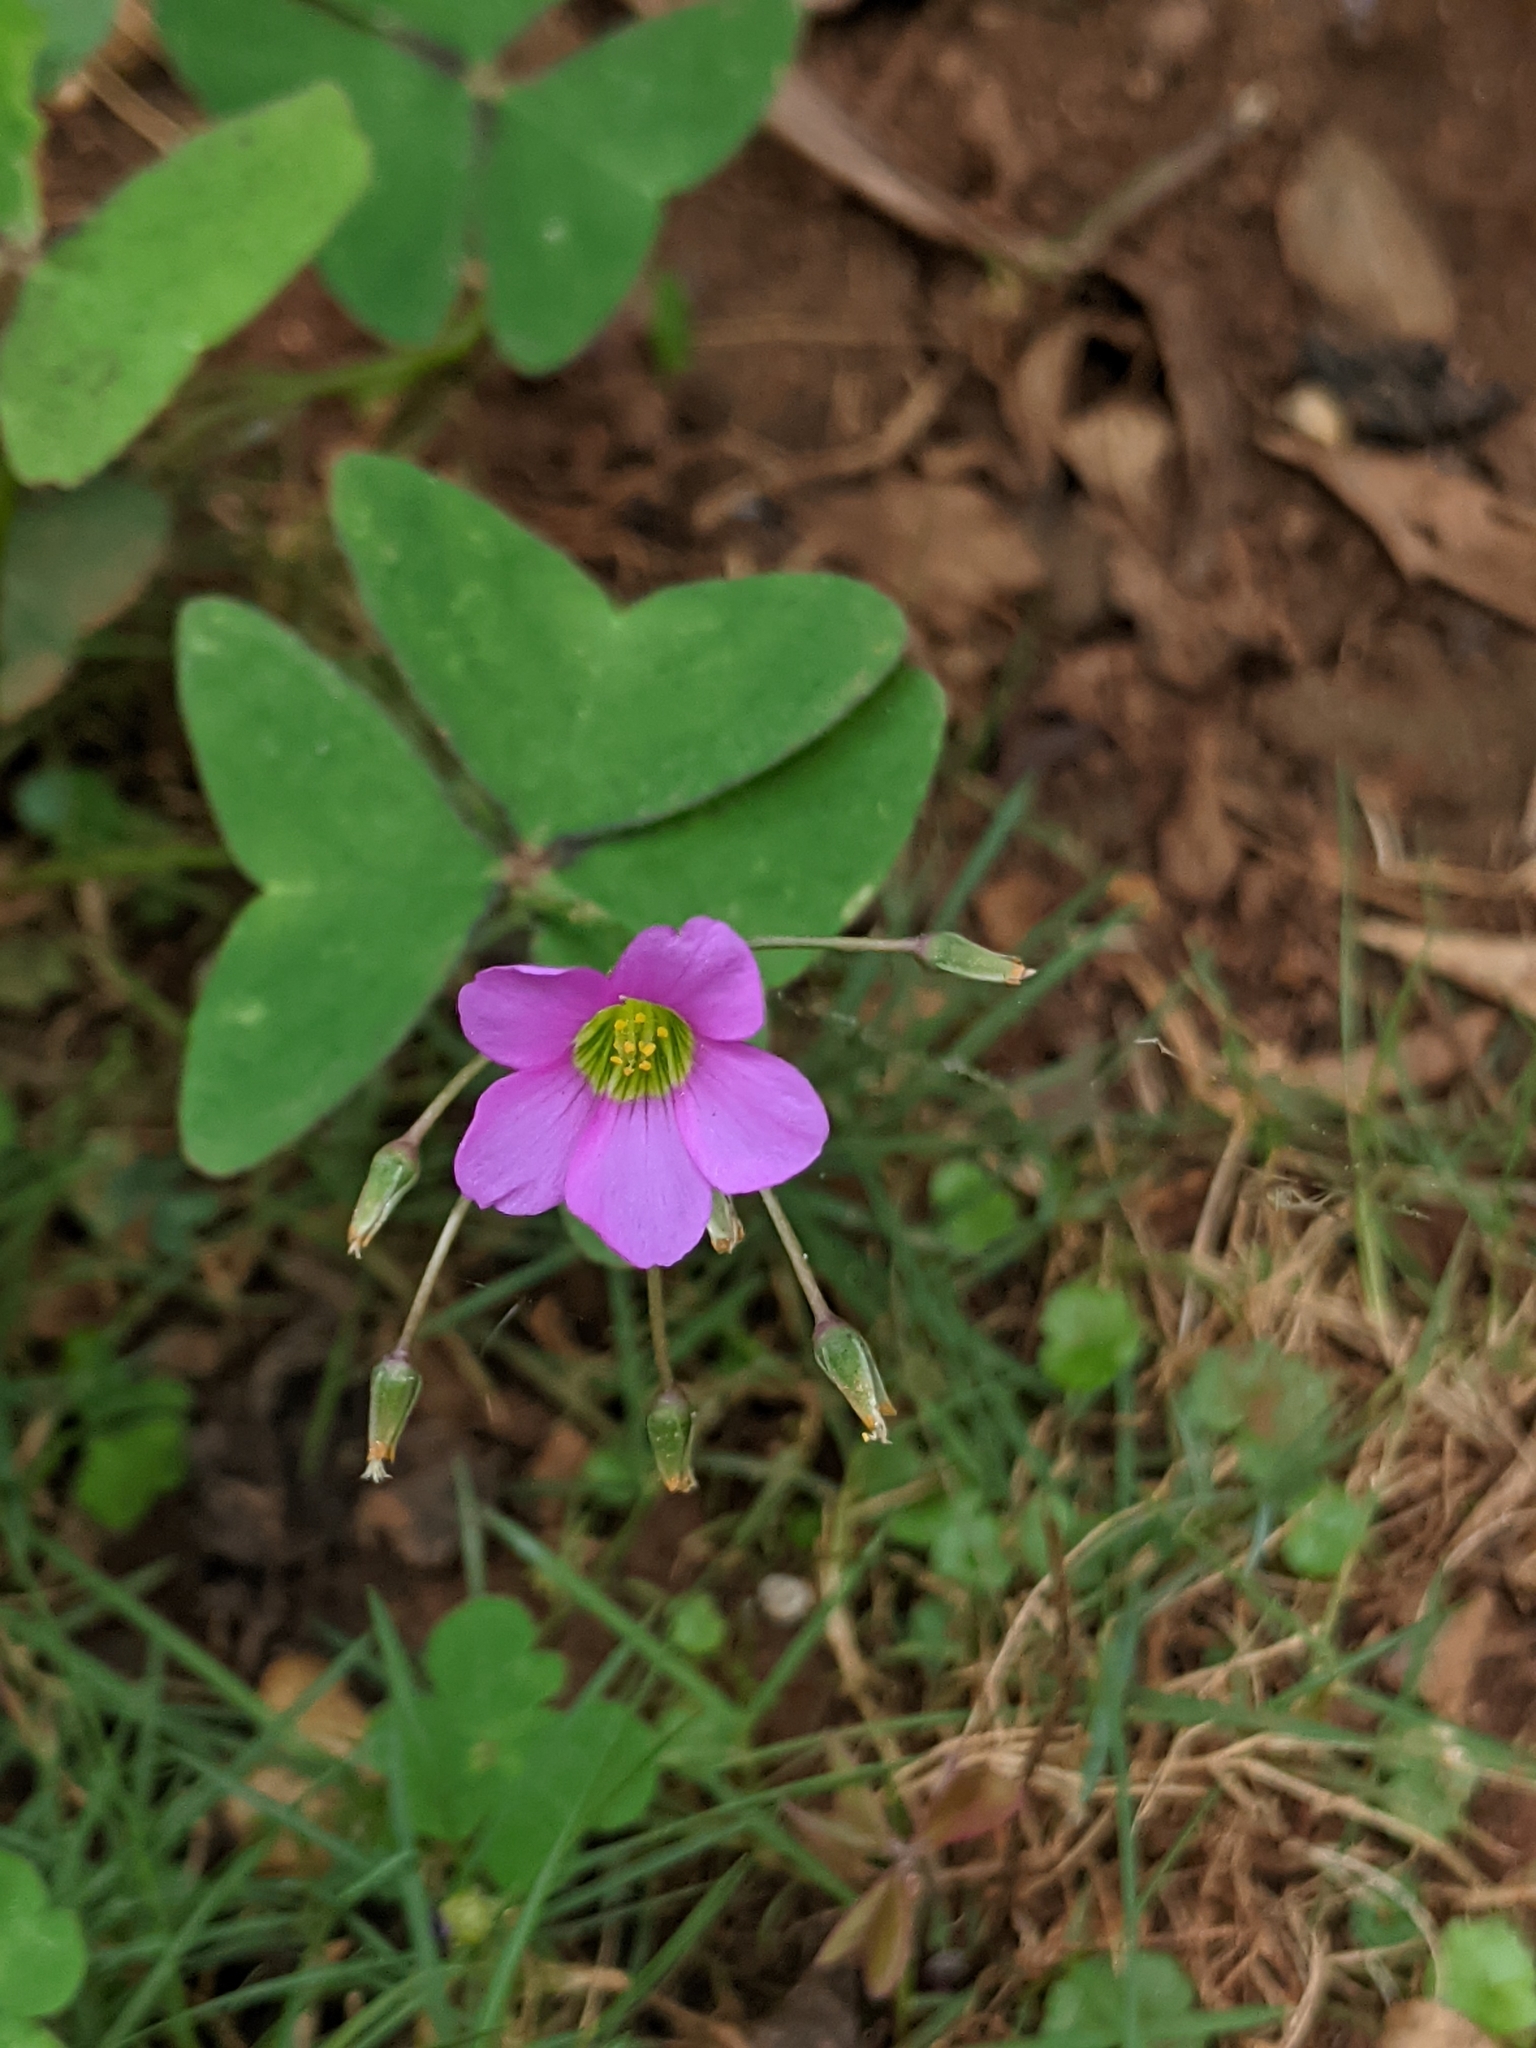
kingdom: Plantae
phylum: Tracheophyta
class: Magnoliopsida
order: Oxalidales
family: Oxalidaceae
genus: Oxalis
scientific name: Oxalis intermedia
